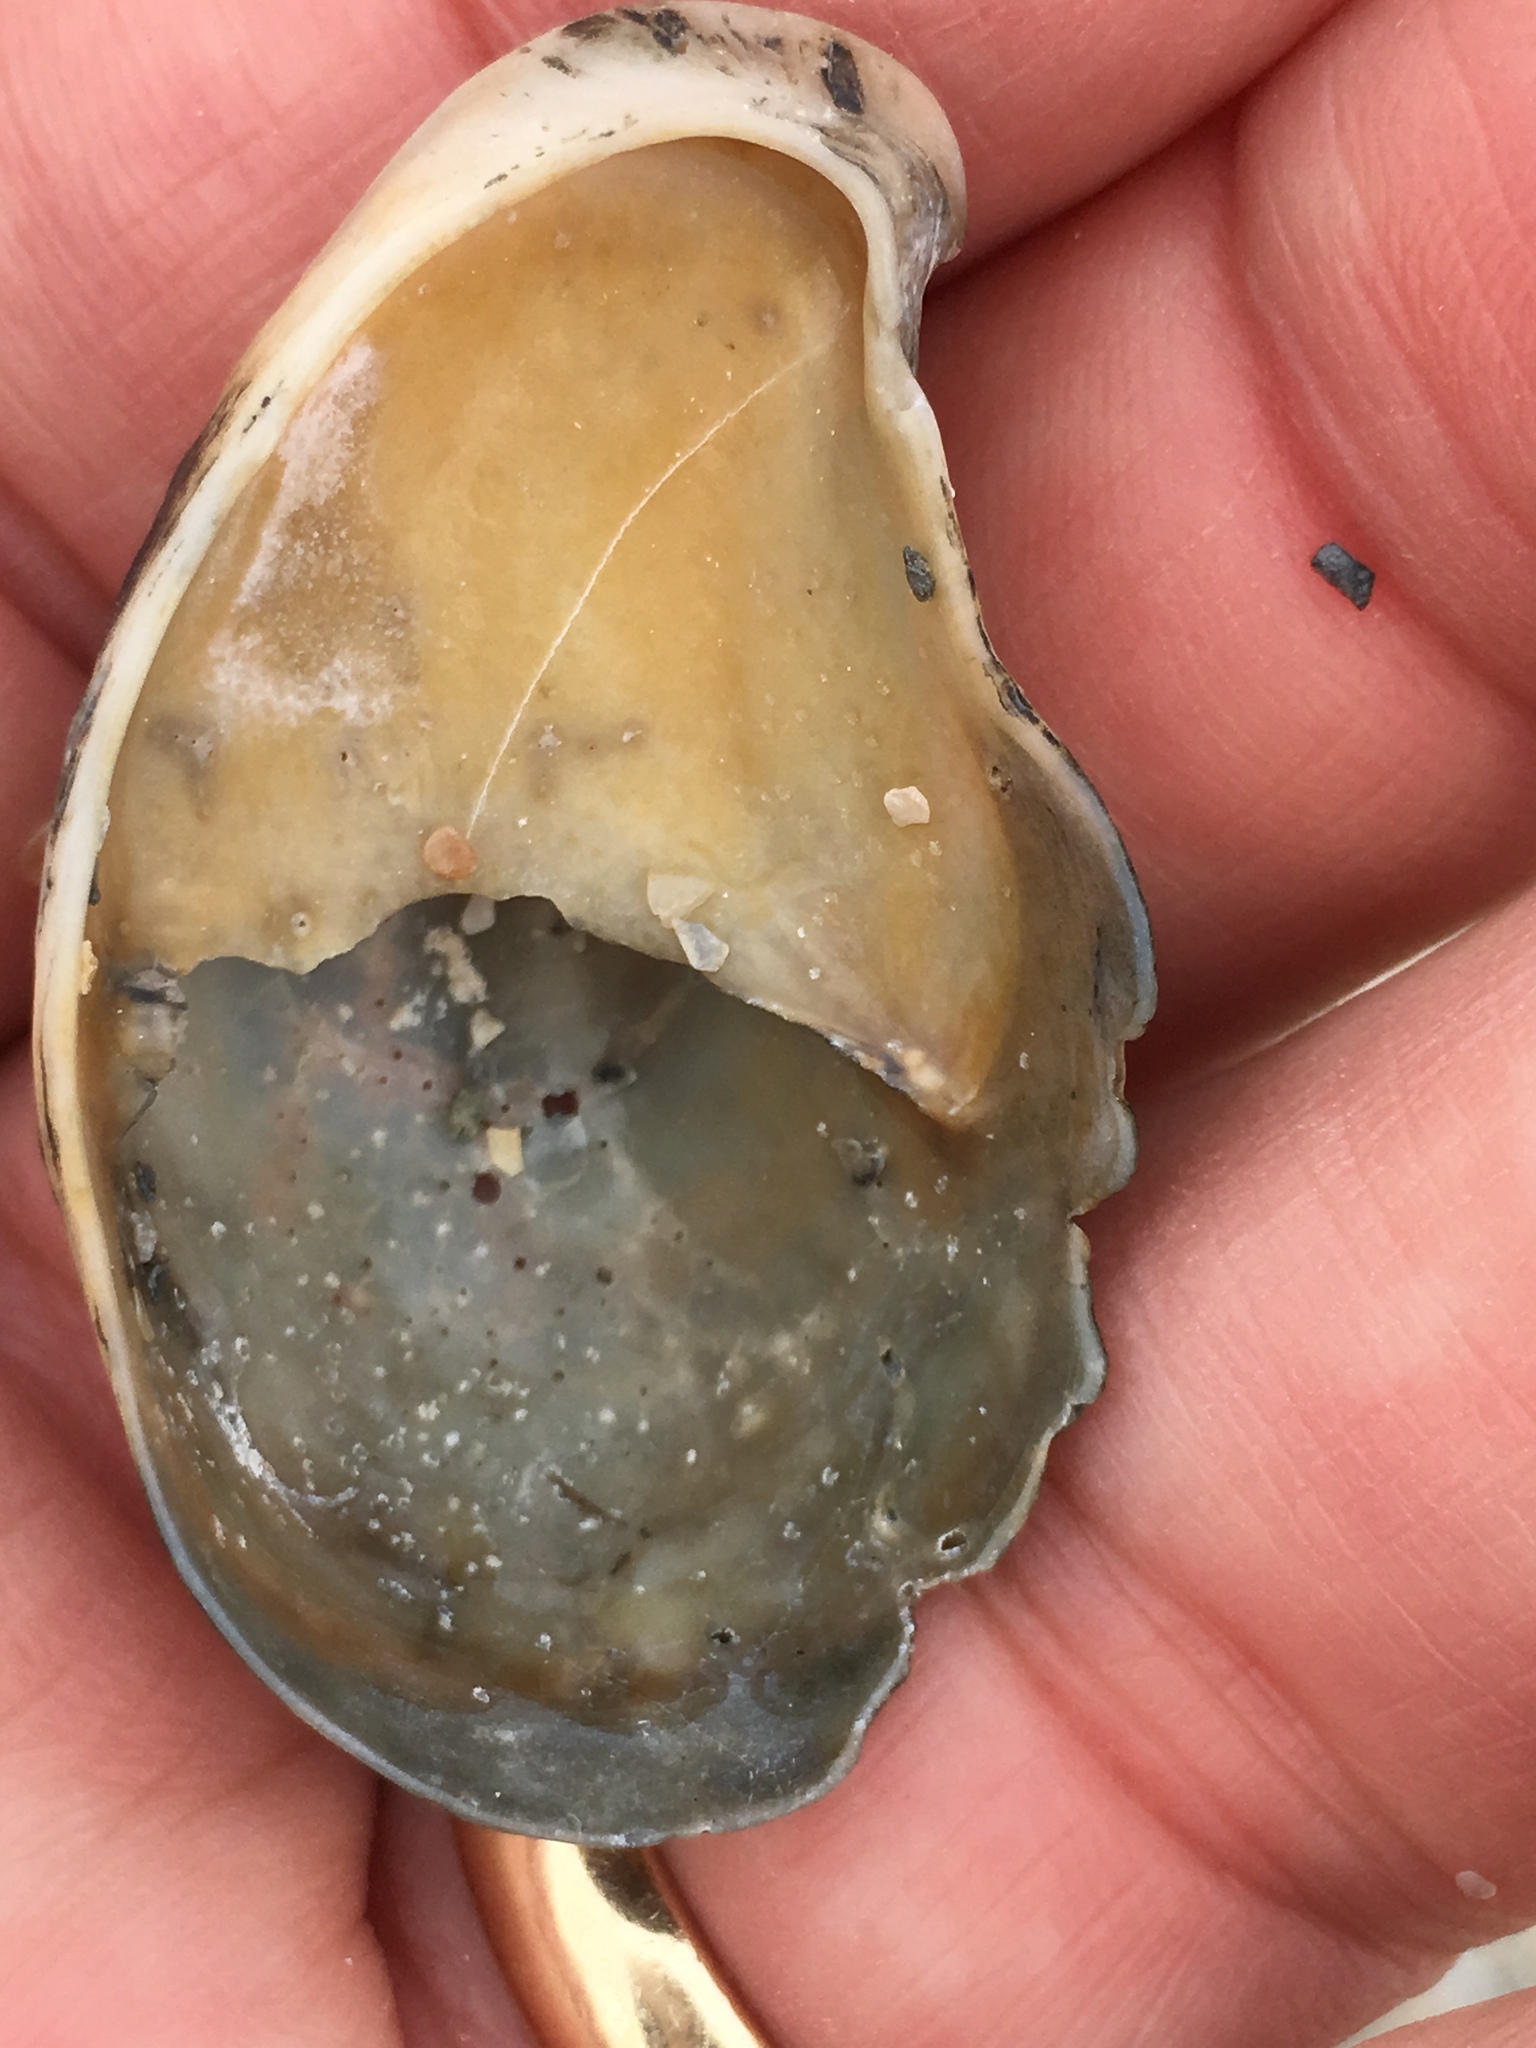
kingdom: Animalia
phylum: Mollusca
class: Gastropoda
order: Littorinimorpha
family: Calyptraeidae
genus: Crepidula
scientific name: Crepidula fornicata
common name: Slipper limpet
